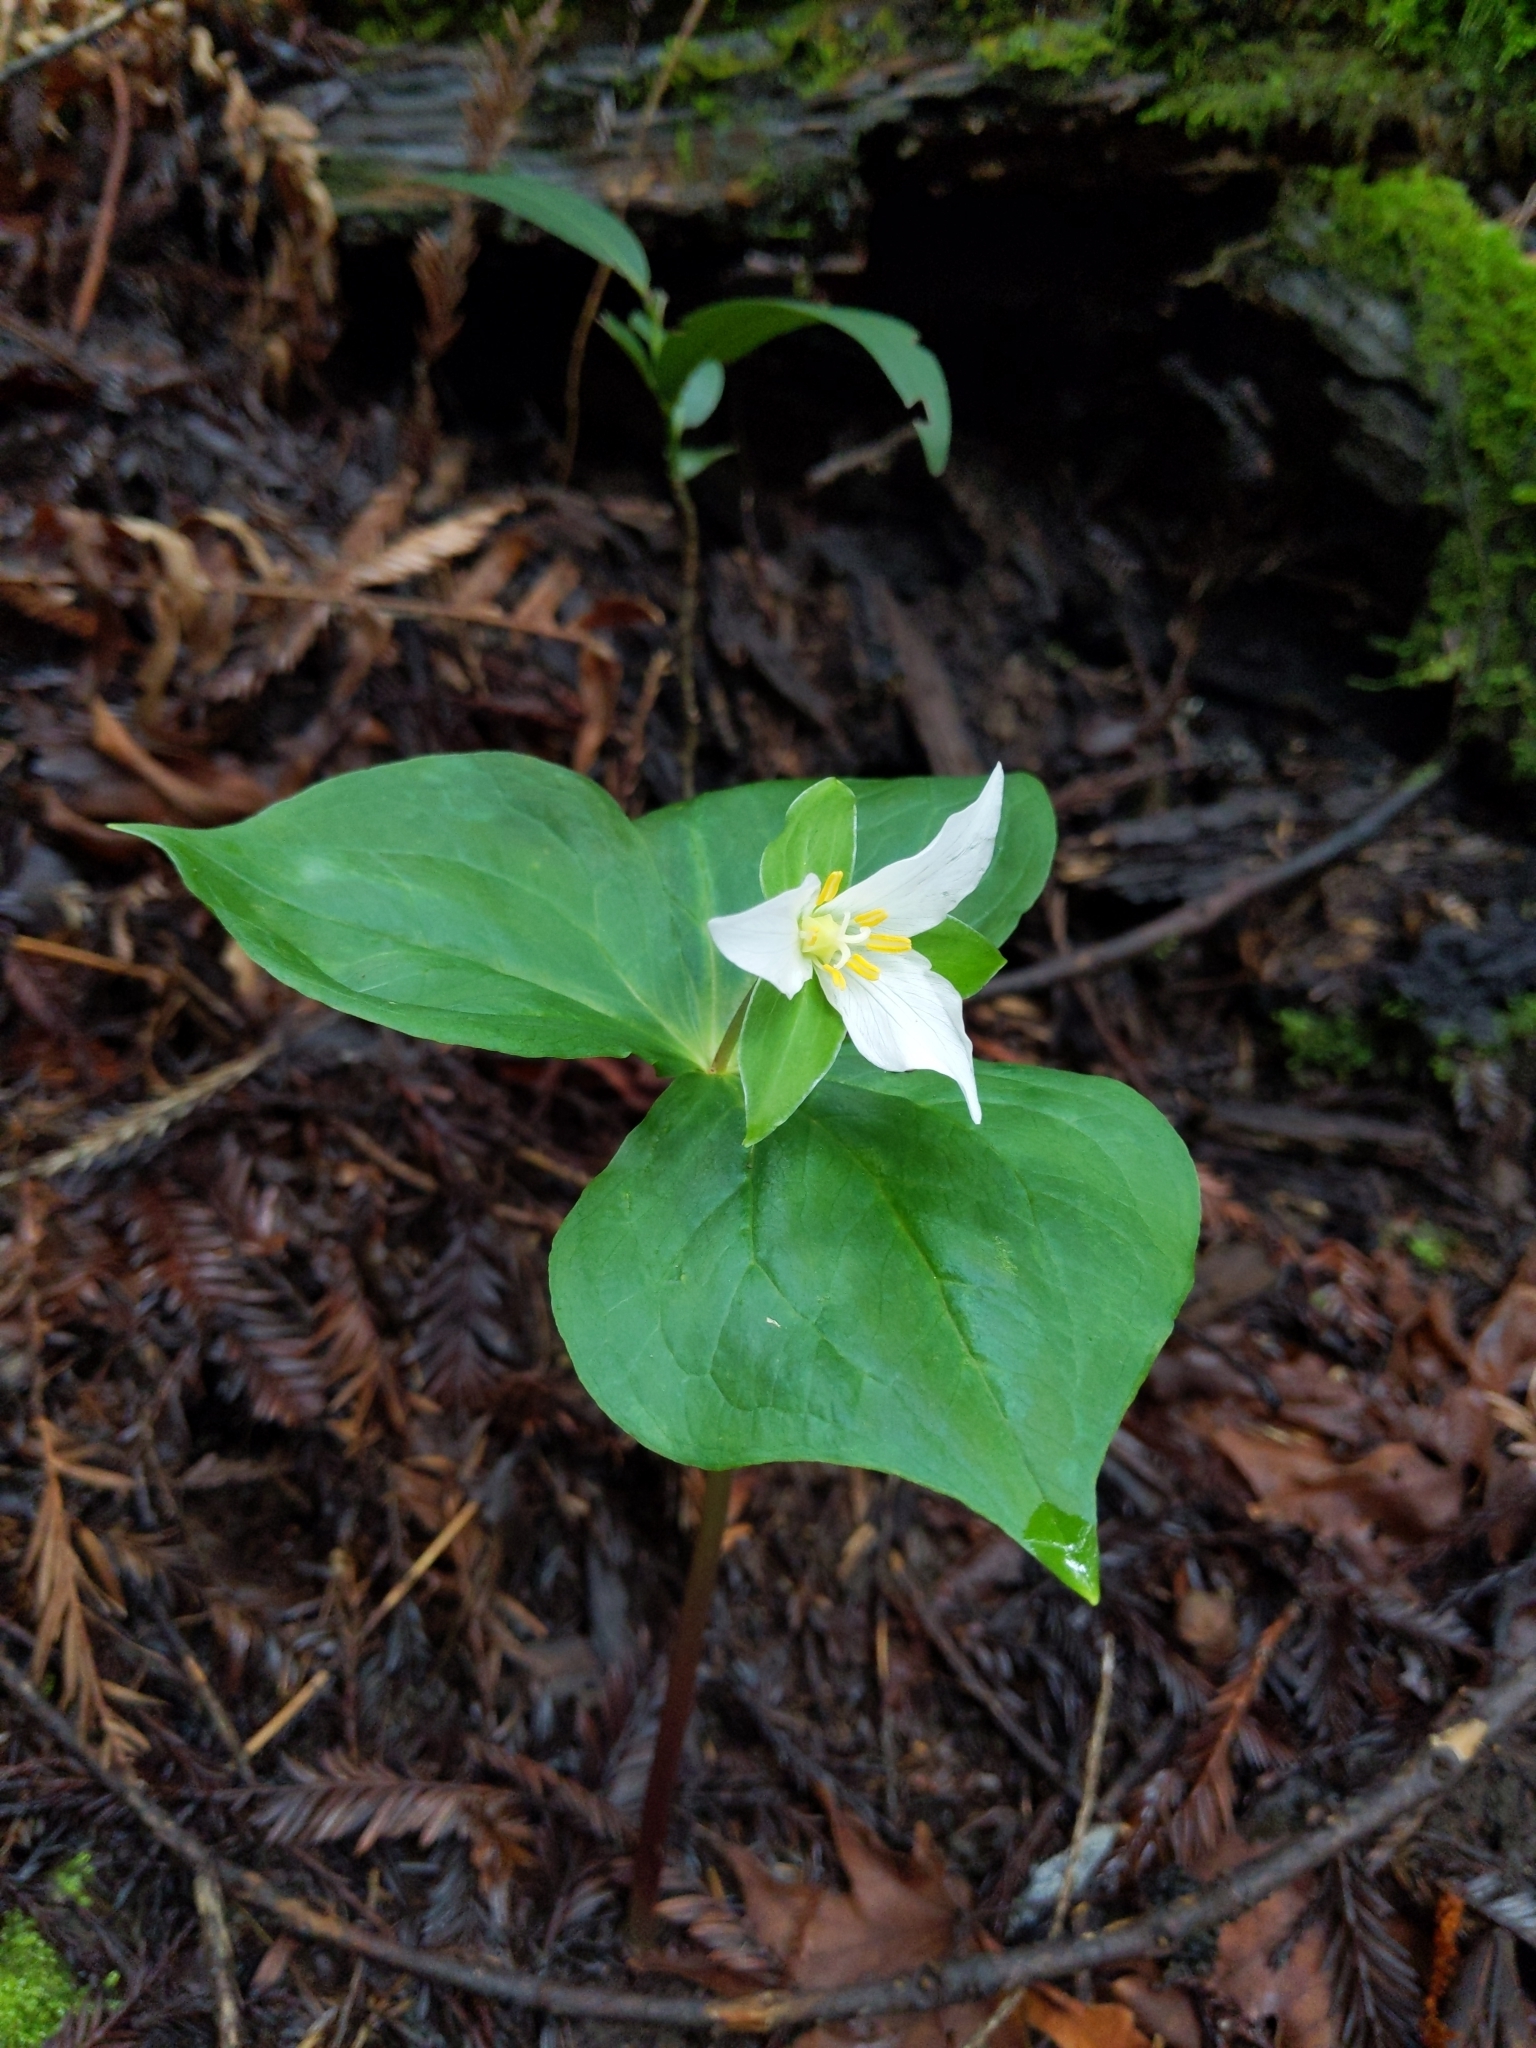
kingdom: Plantae
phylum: Tracheophyta
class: Liliopsida
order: Liliales
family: Melanthiaceae
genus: Trillium
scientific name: Trillium ovatum
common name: Pacific trillium
